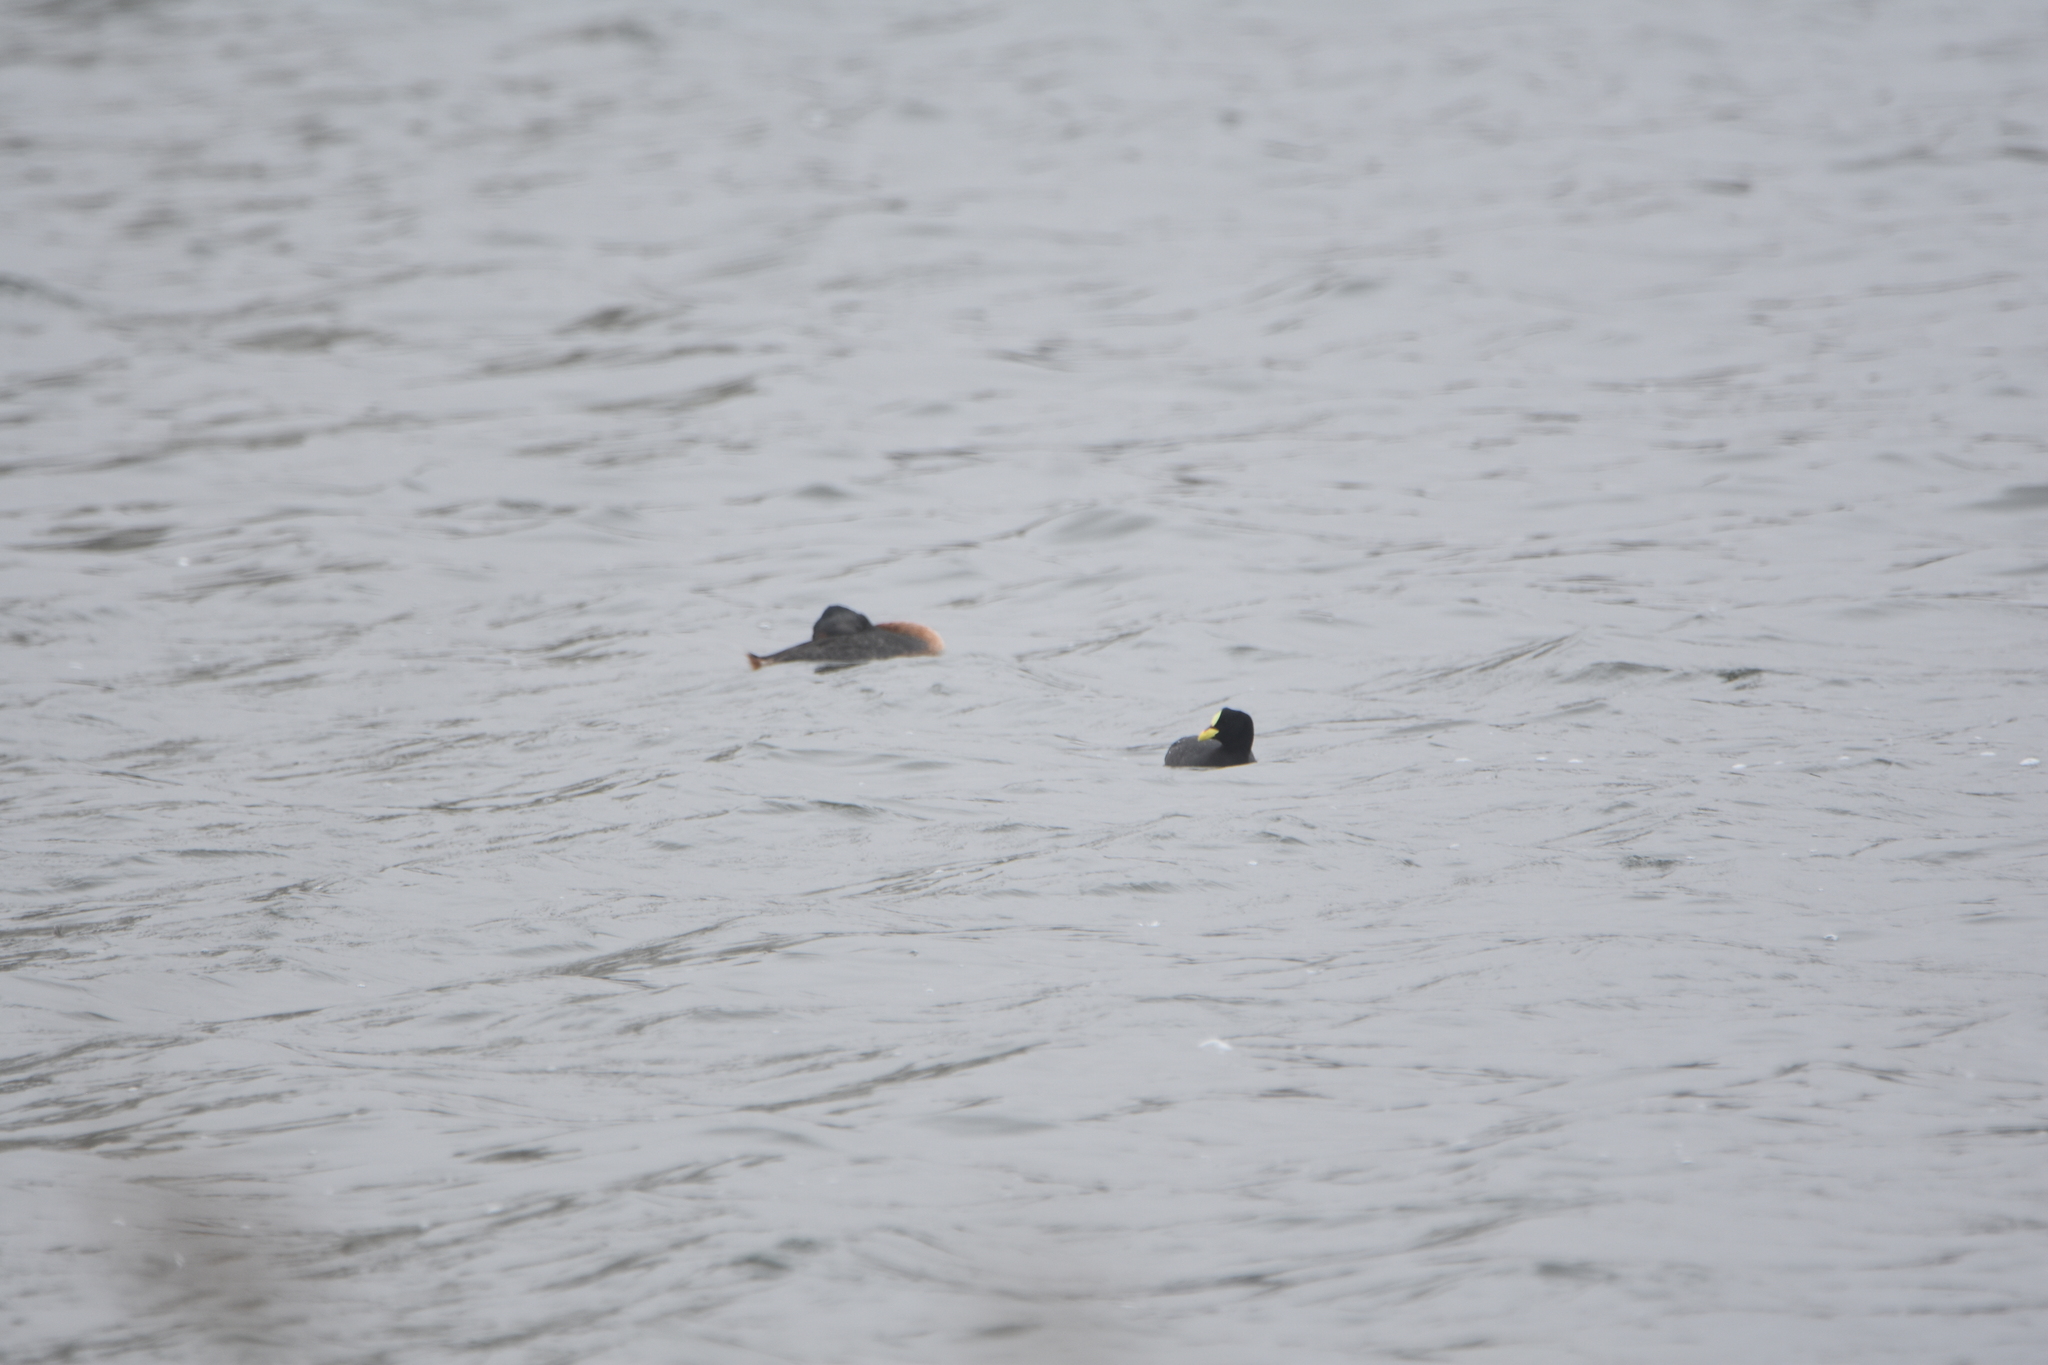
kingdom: Animalia
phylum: Chordata
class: Aves
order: Podicipediformes
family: Podicipedidae
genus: Podiceps
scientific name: Podiceps major
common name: Great grebe
